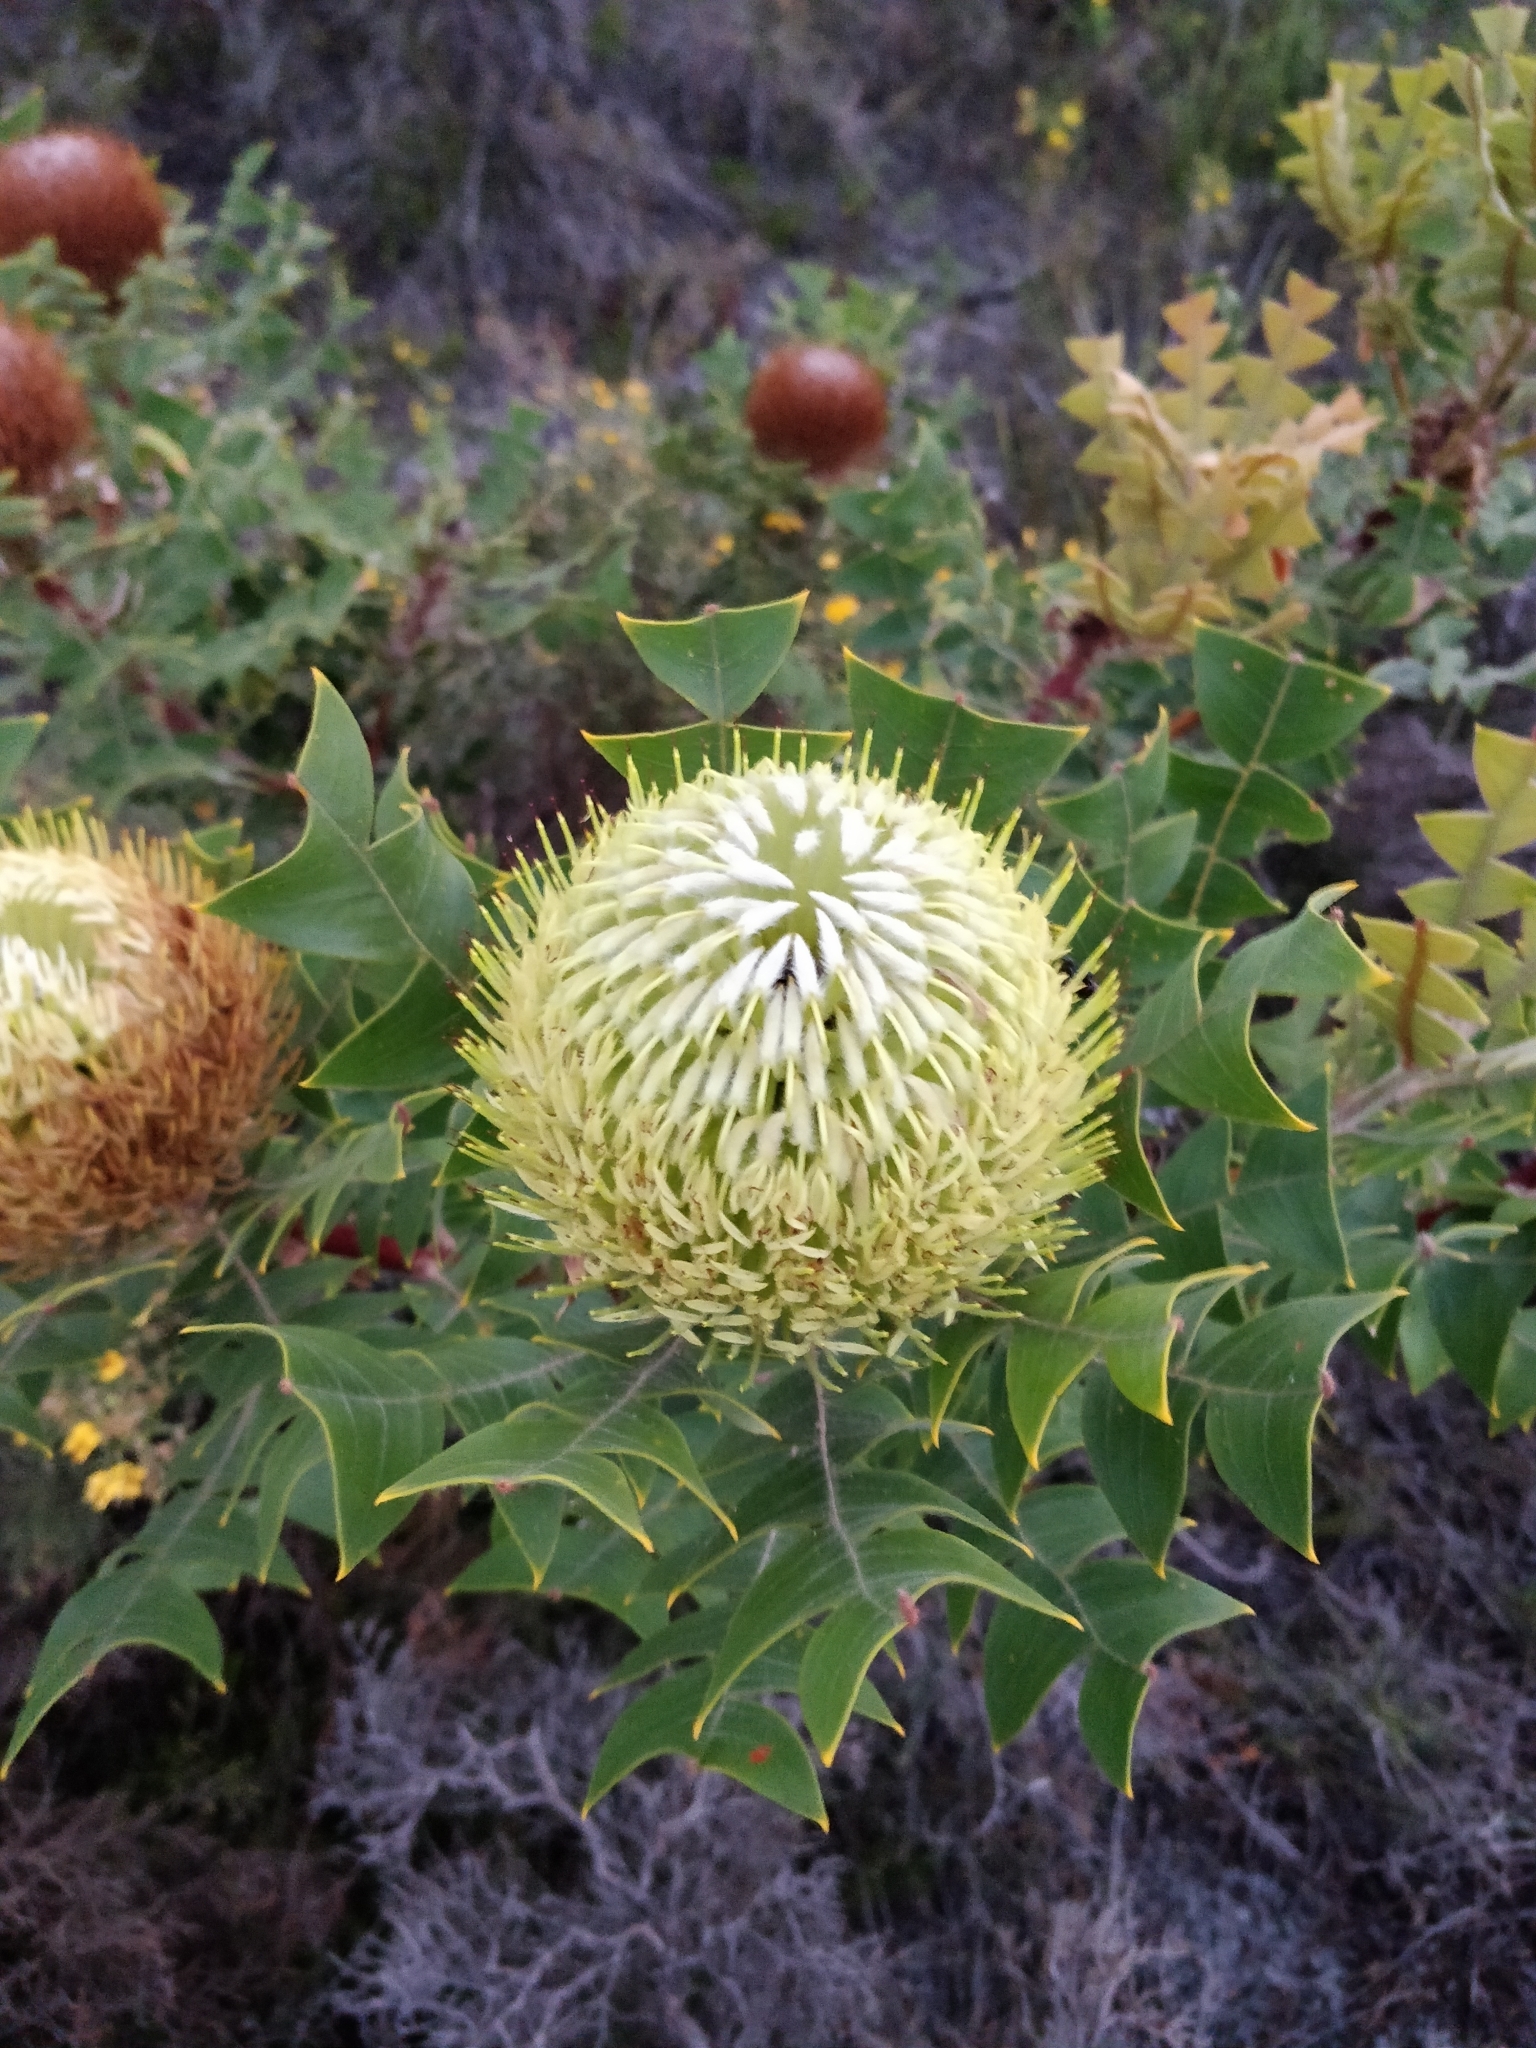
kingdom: Plantae
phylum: Tracheophyta
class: Magnoliopsida
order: Proteales
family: Proteaceae
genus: Banksia
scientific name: Banksia baxteri
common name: Bird's-nest banksia
